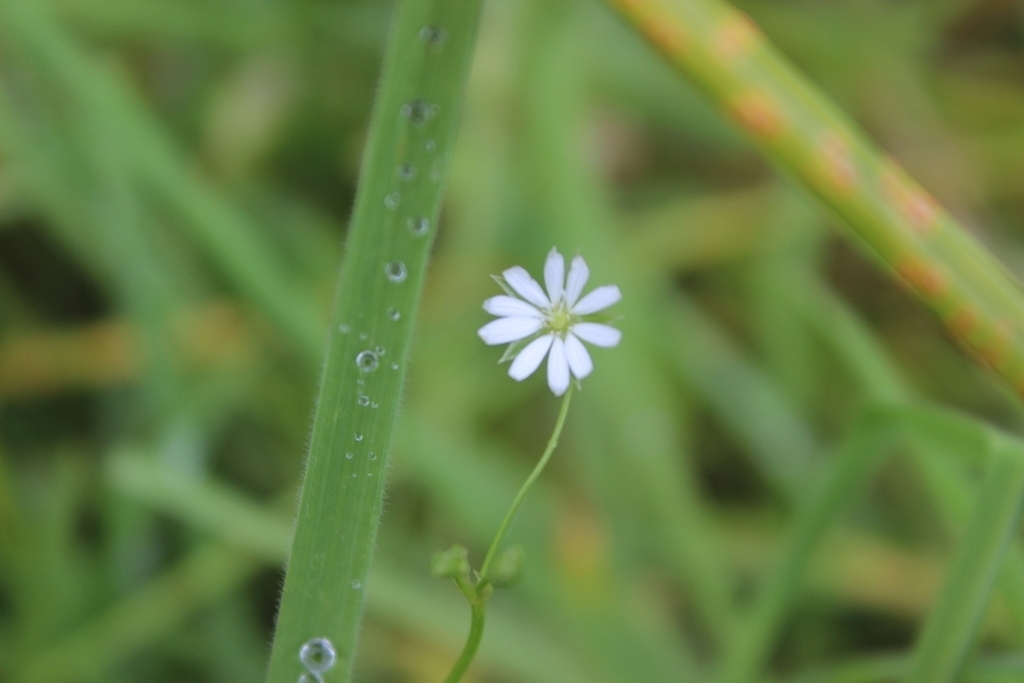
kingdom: Plantae
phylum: Tracheophyta
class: Magnoliopsida
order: Caryophyllales
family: Caryophyllaceae
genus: Stellaria
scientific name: Stellaria graminea
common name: Grass-like starwort
